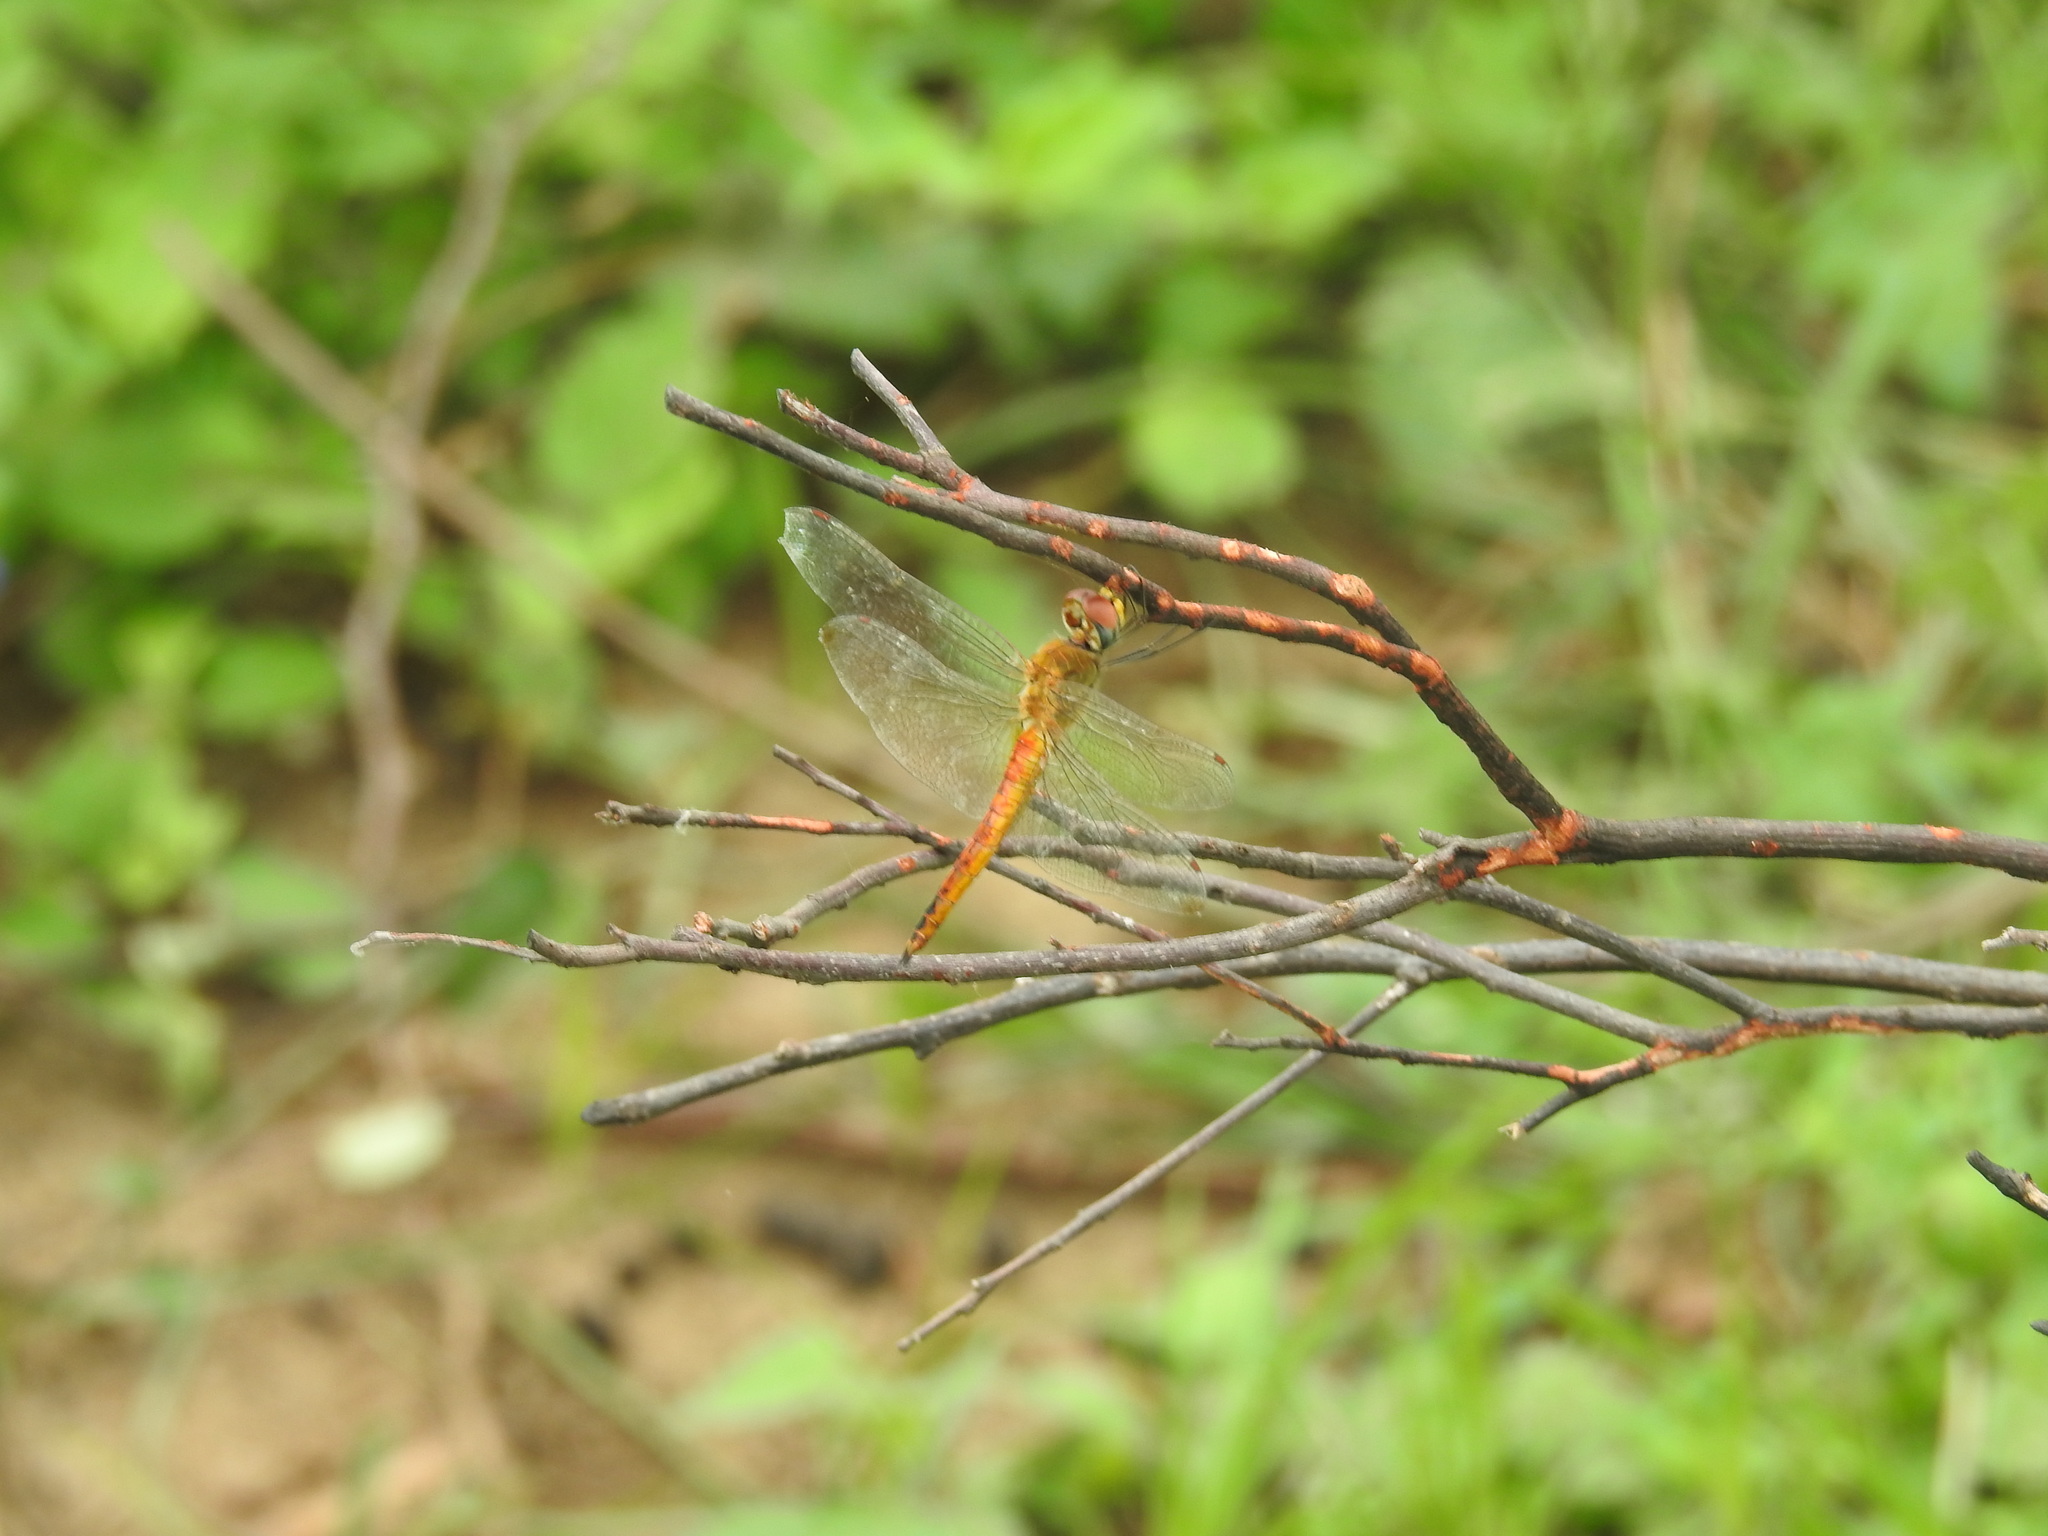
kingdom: Animalia
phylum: Arthropoda
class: Insecta
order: Odonata
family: Libellulidae
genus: Pantala
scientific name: Pantala flavescens
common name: Wandering glider
